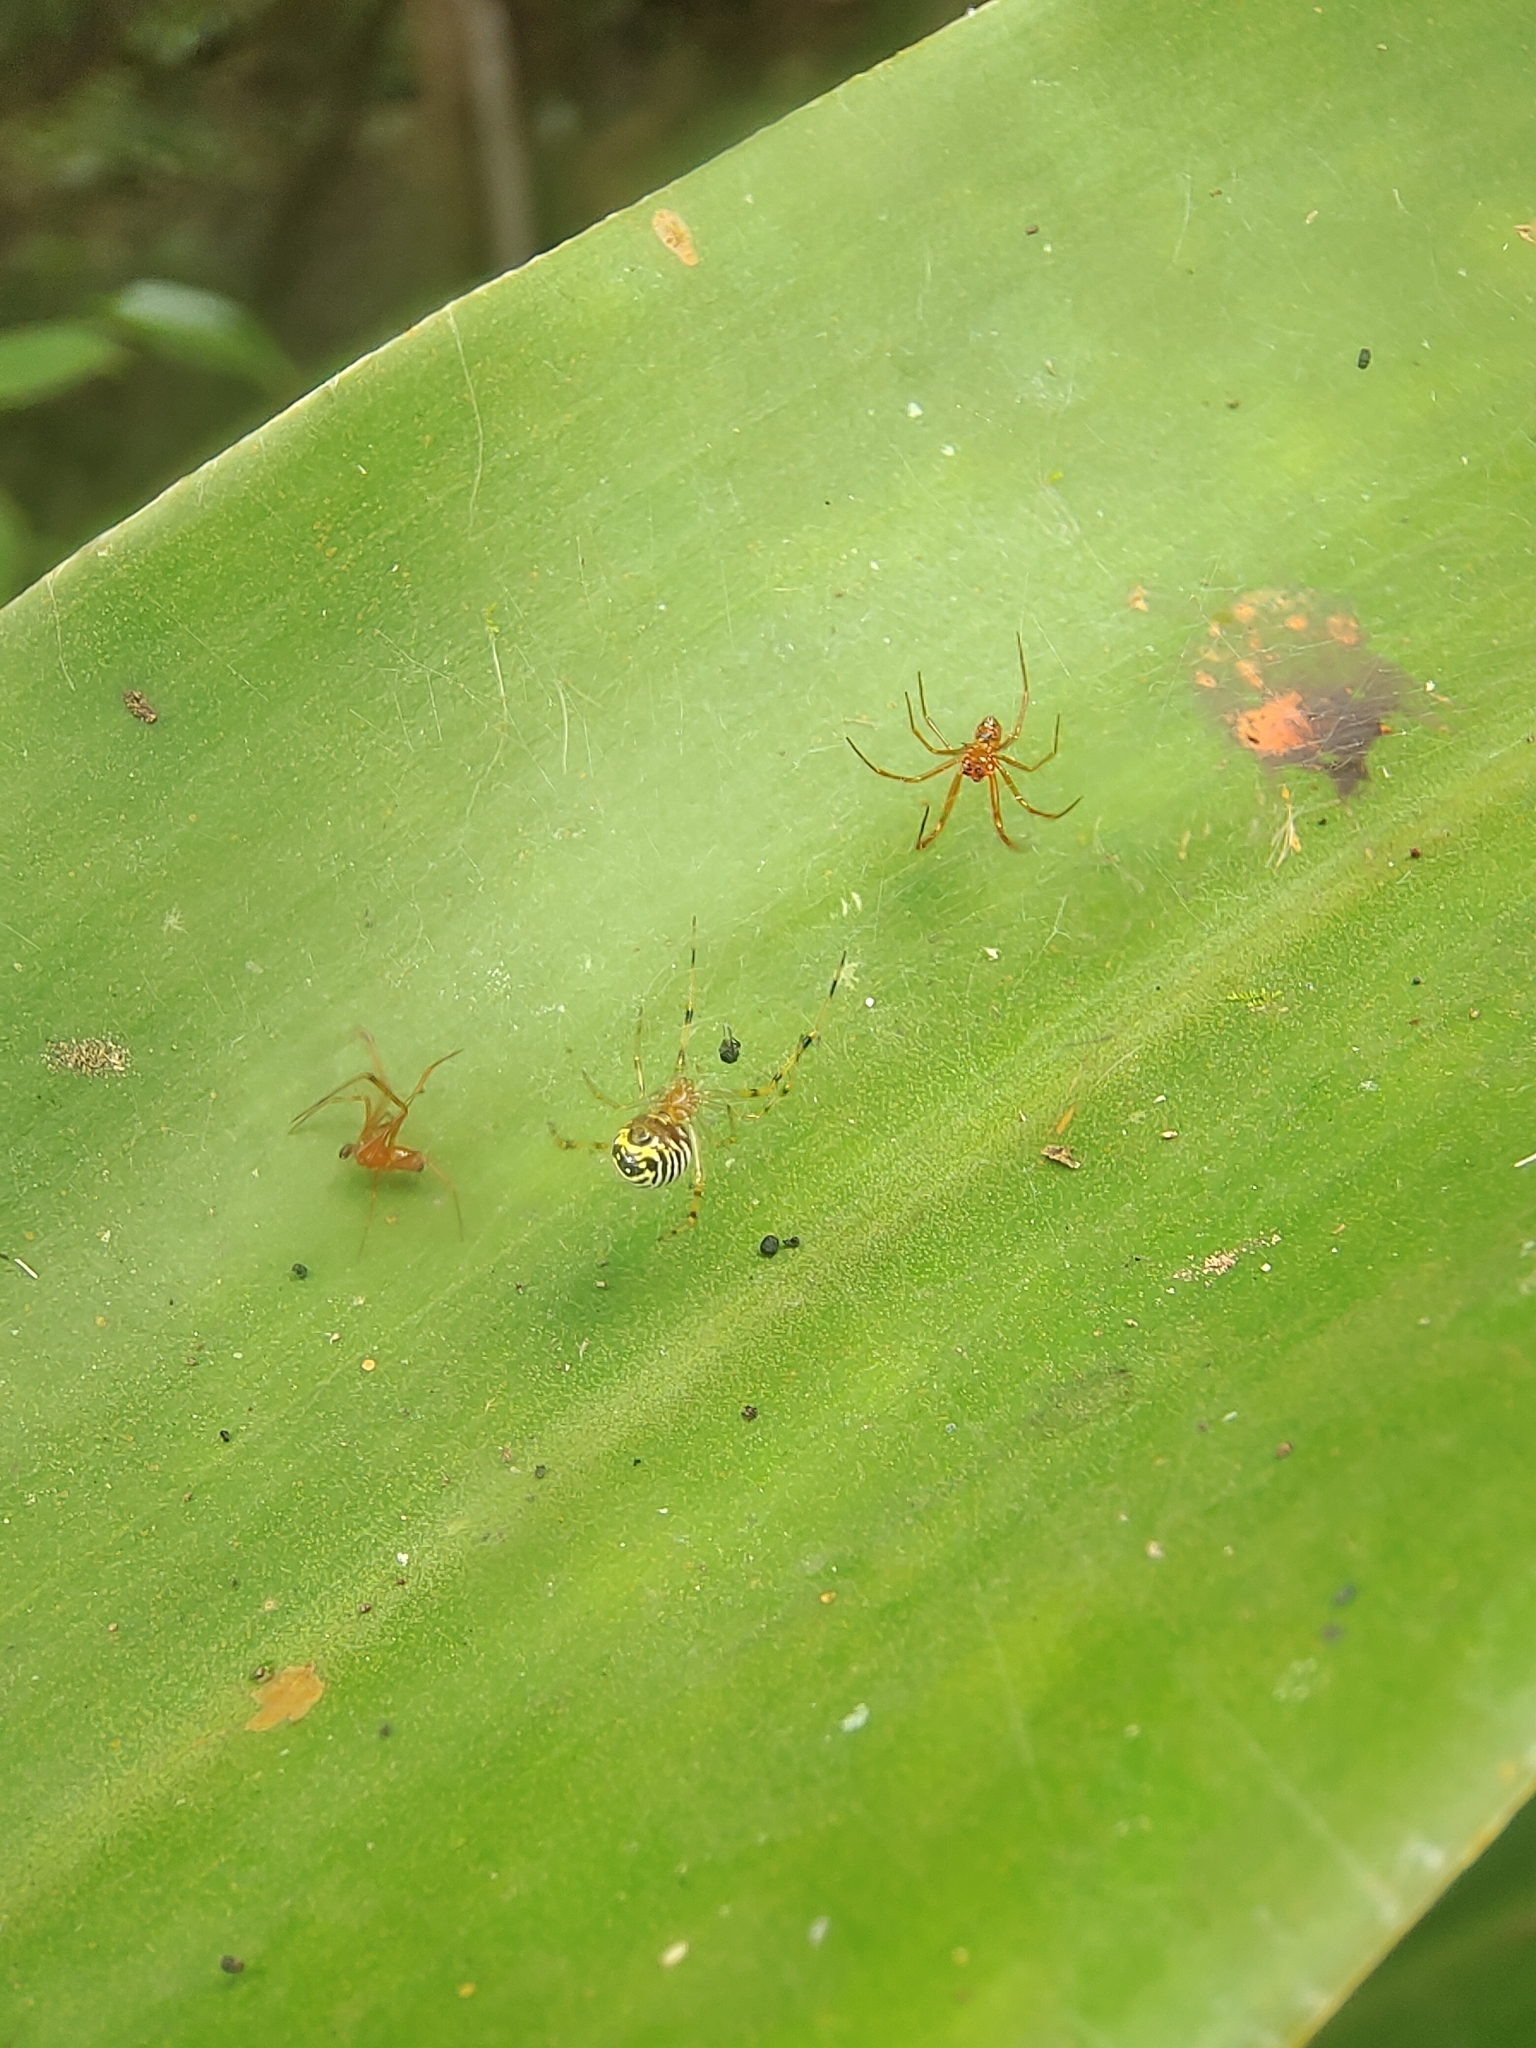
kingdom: Animalia
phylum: Arthropoda
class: Arachnida
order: Araneae
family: Theridiidae
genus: Theridion
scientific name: Theridion zonulatum
